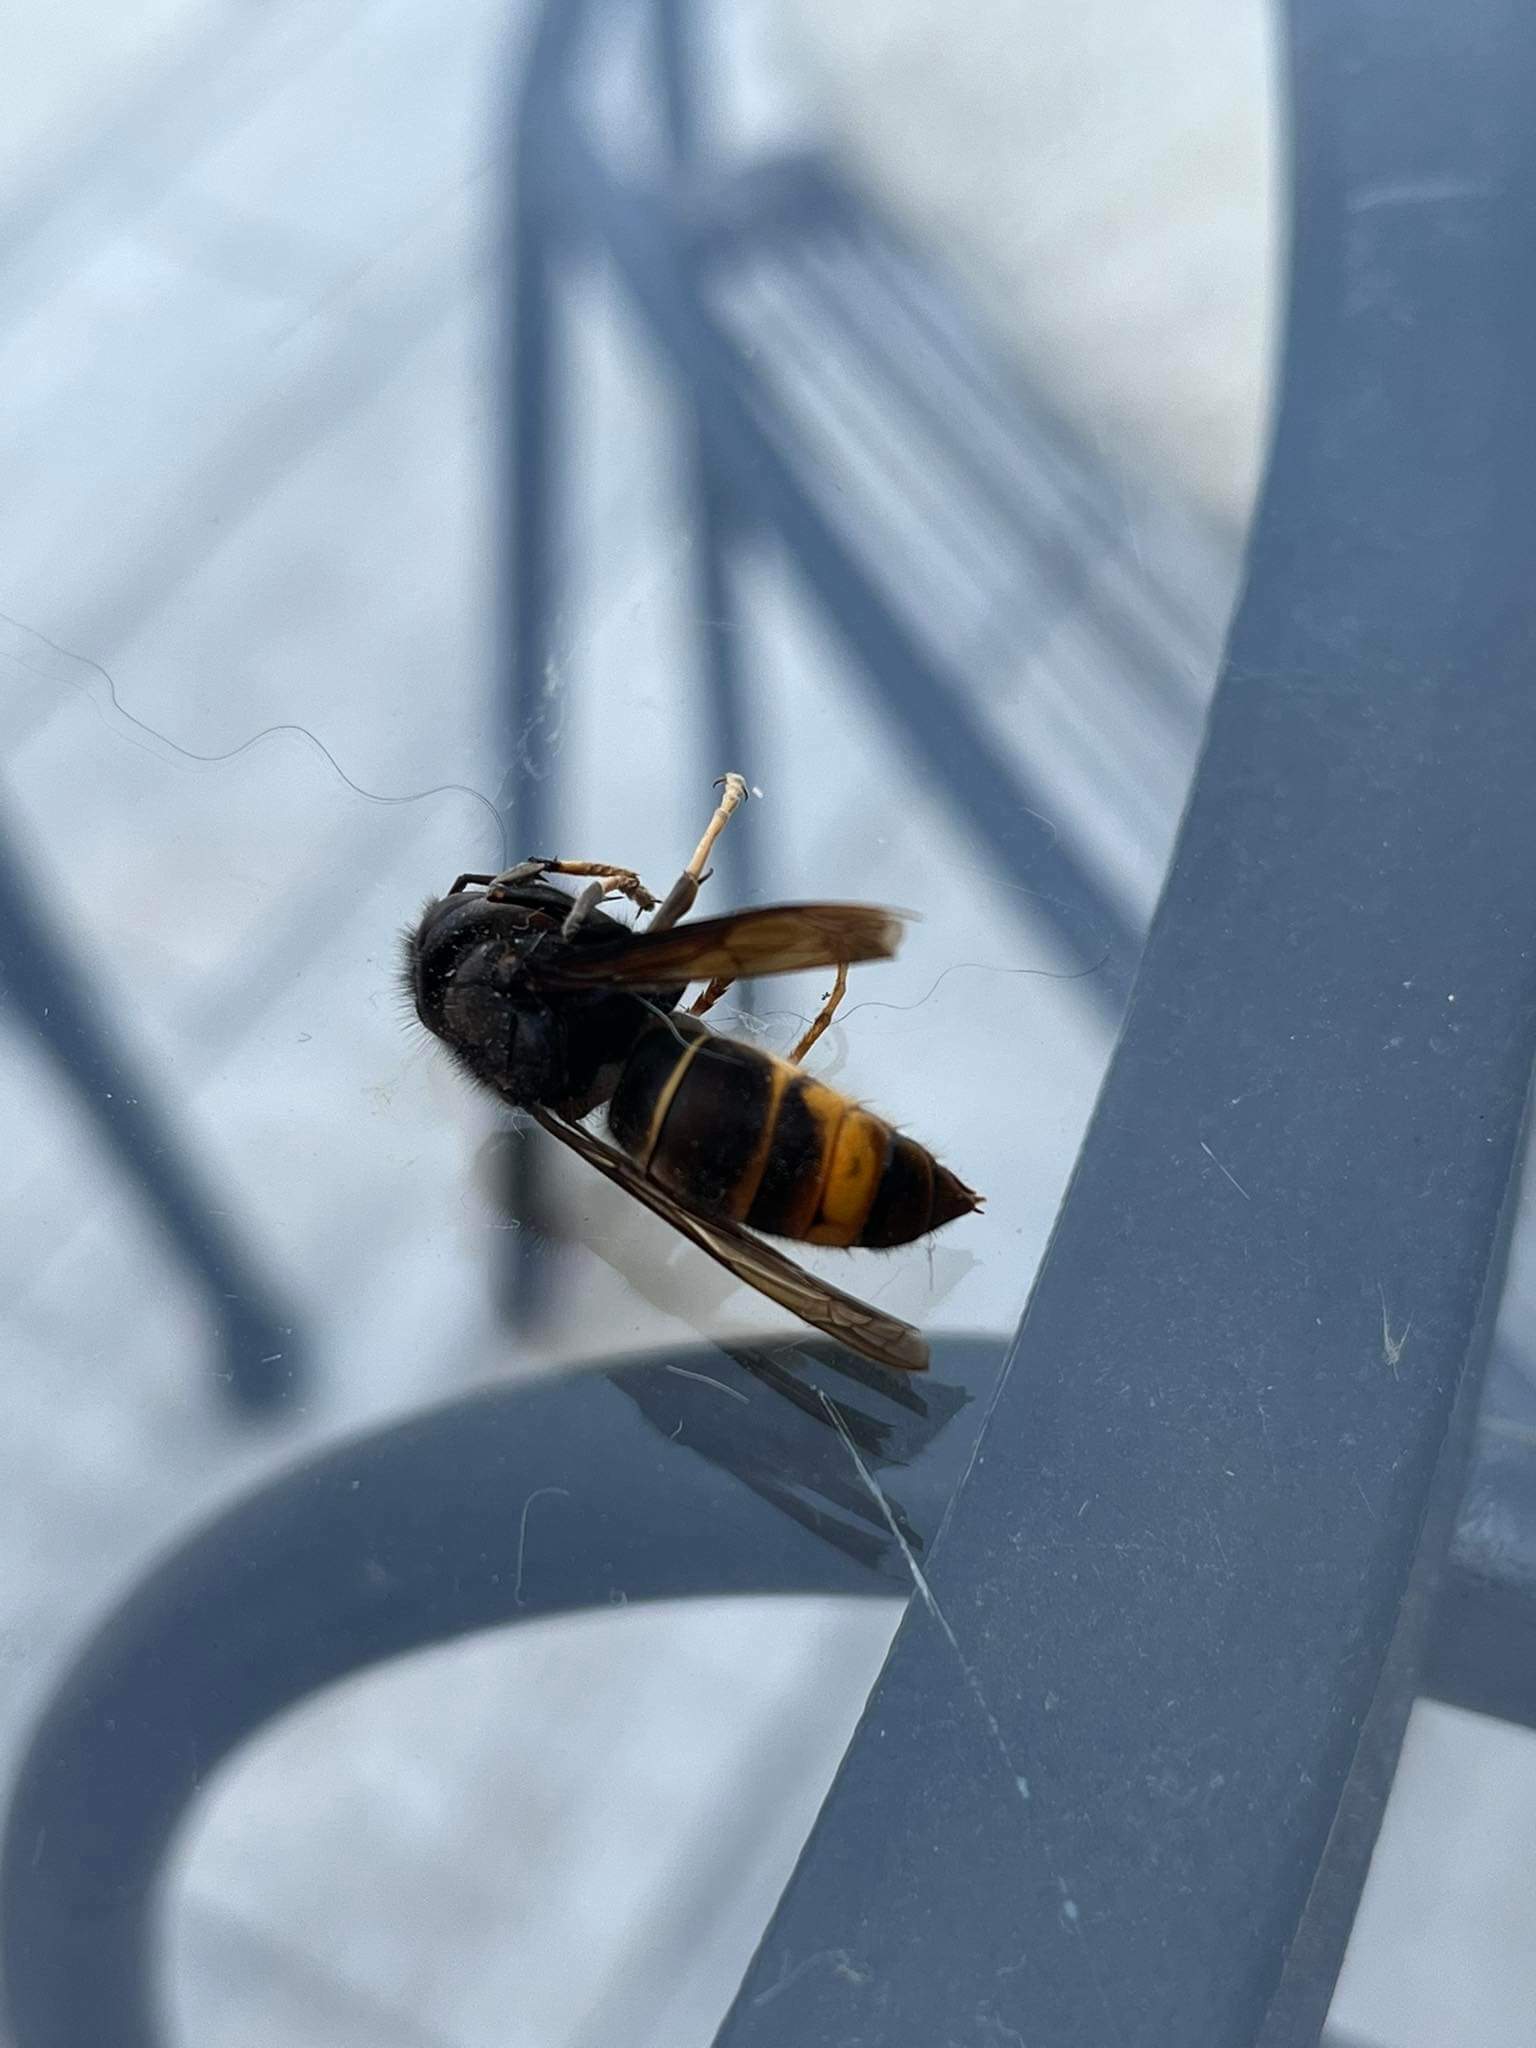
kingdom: Animalia
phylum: Arthropoda
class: Insecta
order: Hymenoptera
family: Vespidae
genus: Vespa
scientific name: Vespa velutina
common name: Asian hornet
